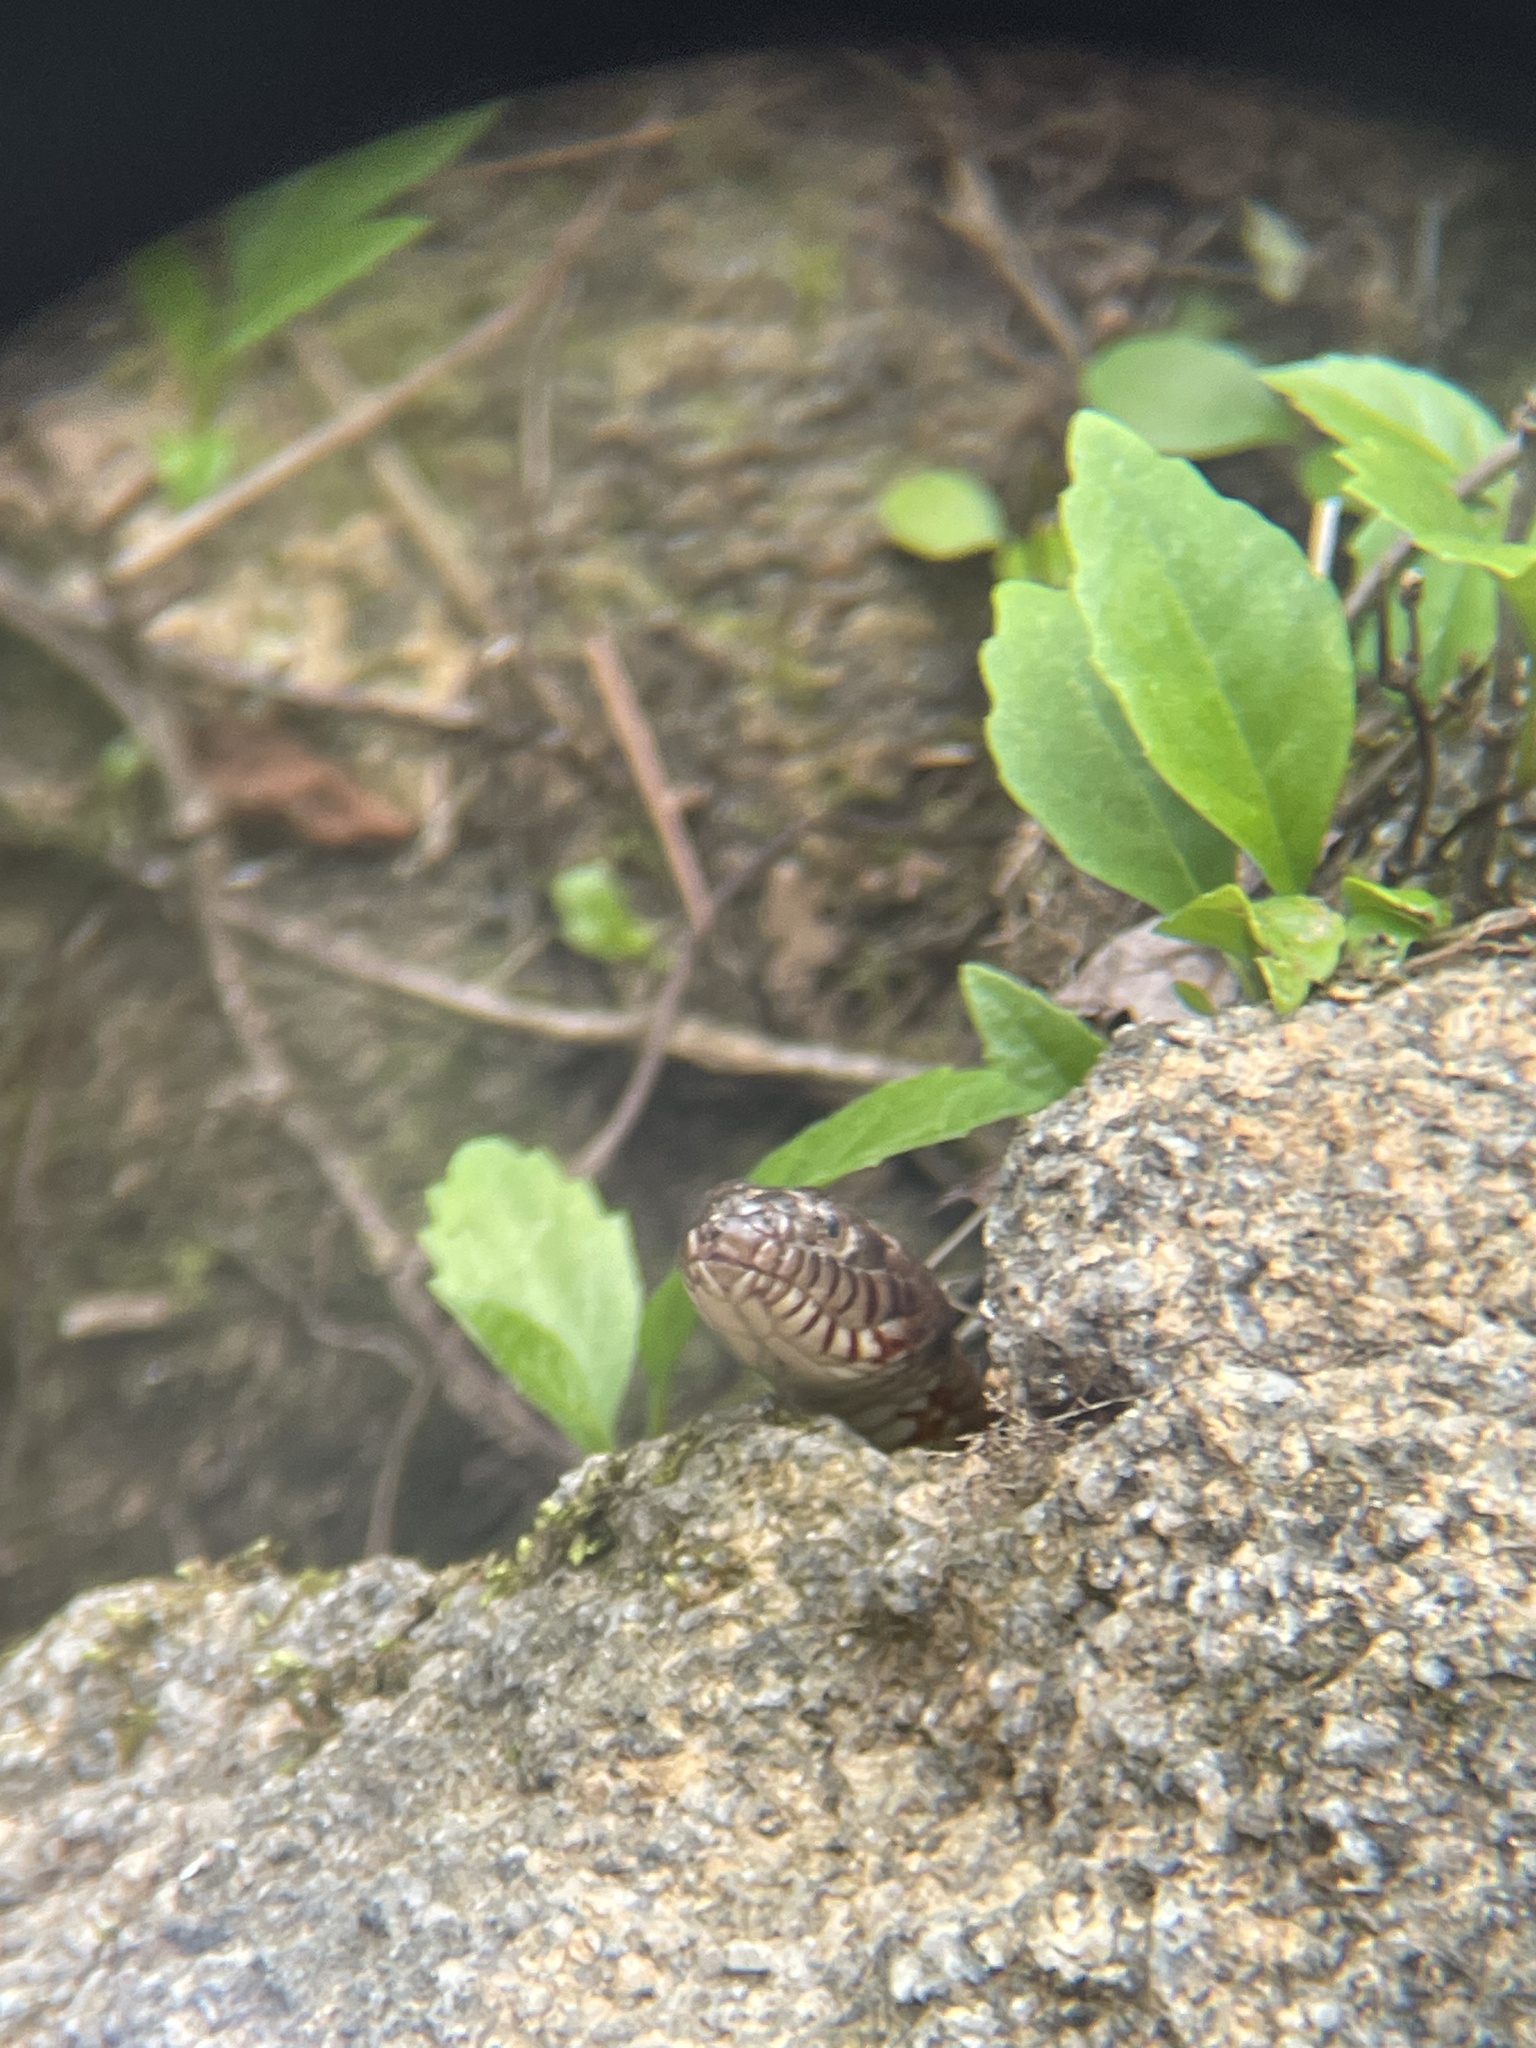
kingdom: Animalia
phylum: Chordata
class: Squamata
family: Colubridae
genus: Nerodia
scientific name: Nerodia sipedon
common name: Northern water snake
